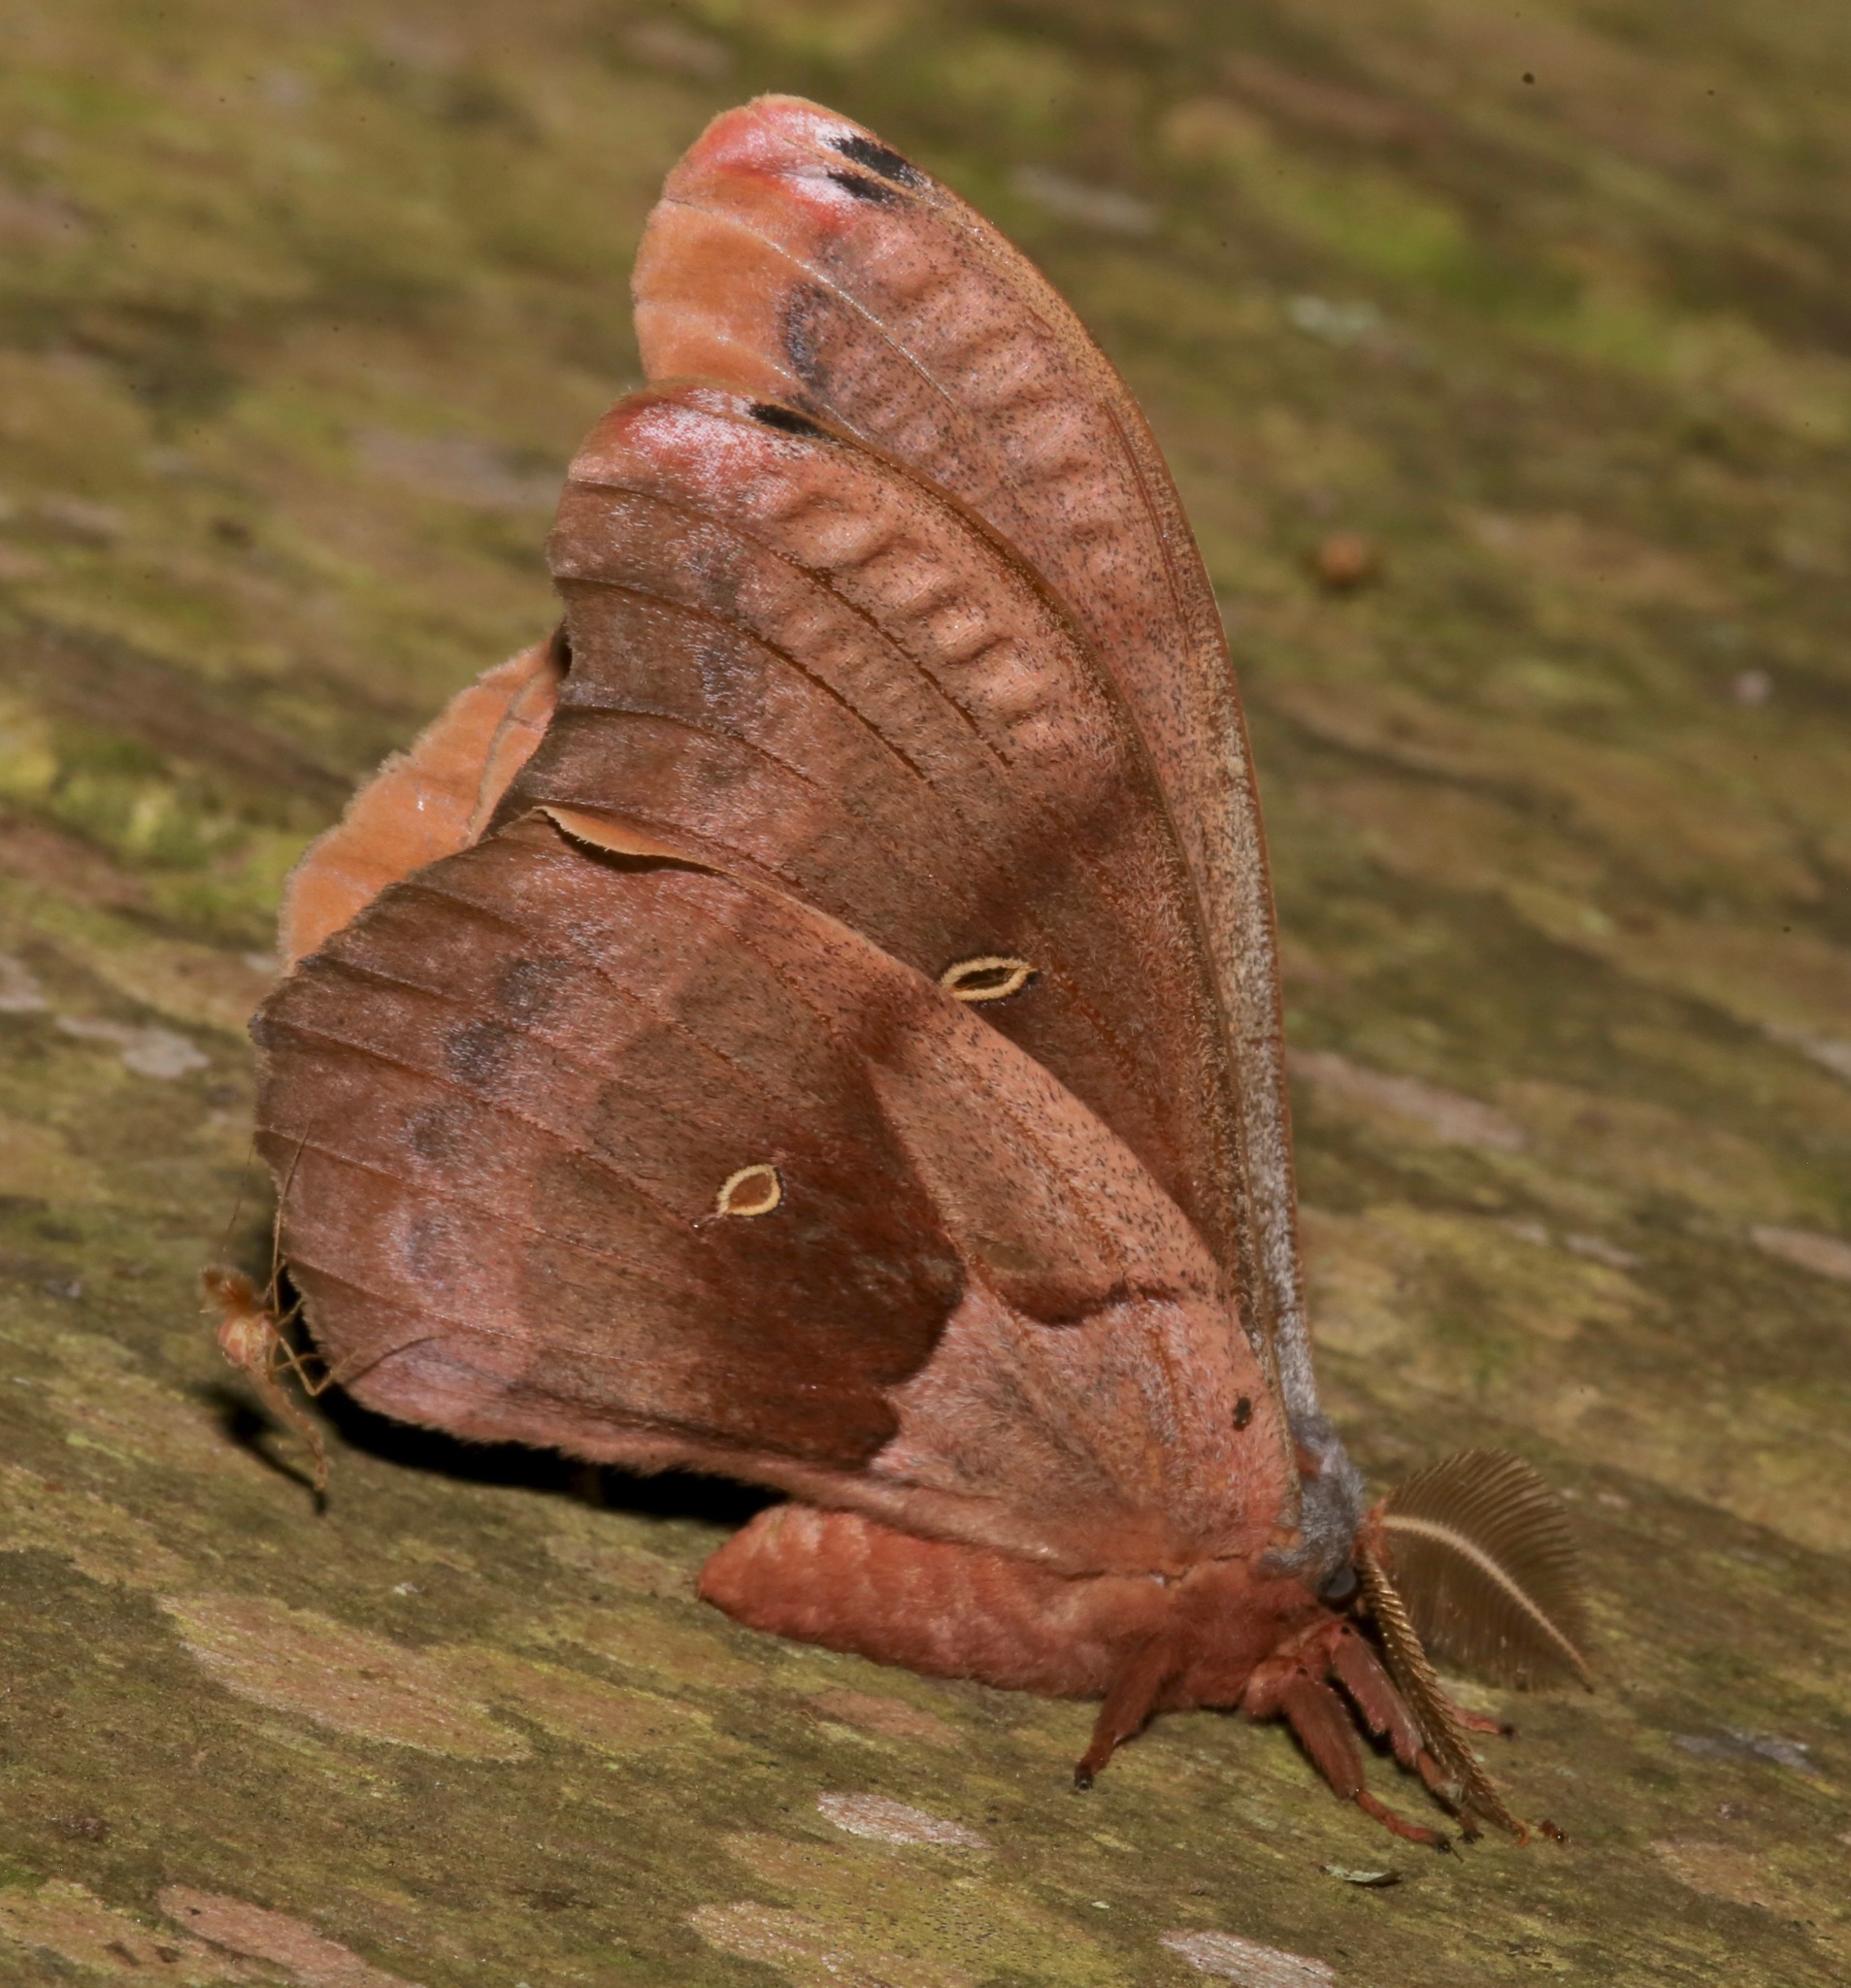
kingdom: Animalia
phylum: Arthropoda
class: Insecta
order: Lepidoptera
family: Saturniidae
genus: Antheraea
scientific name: Antheraea polyphemus
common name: Polyphemus moth
